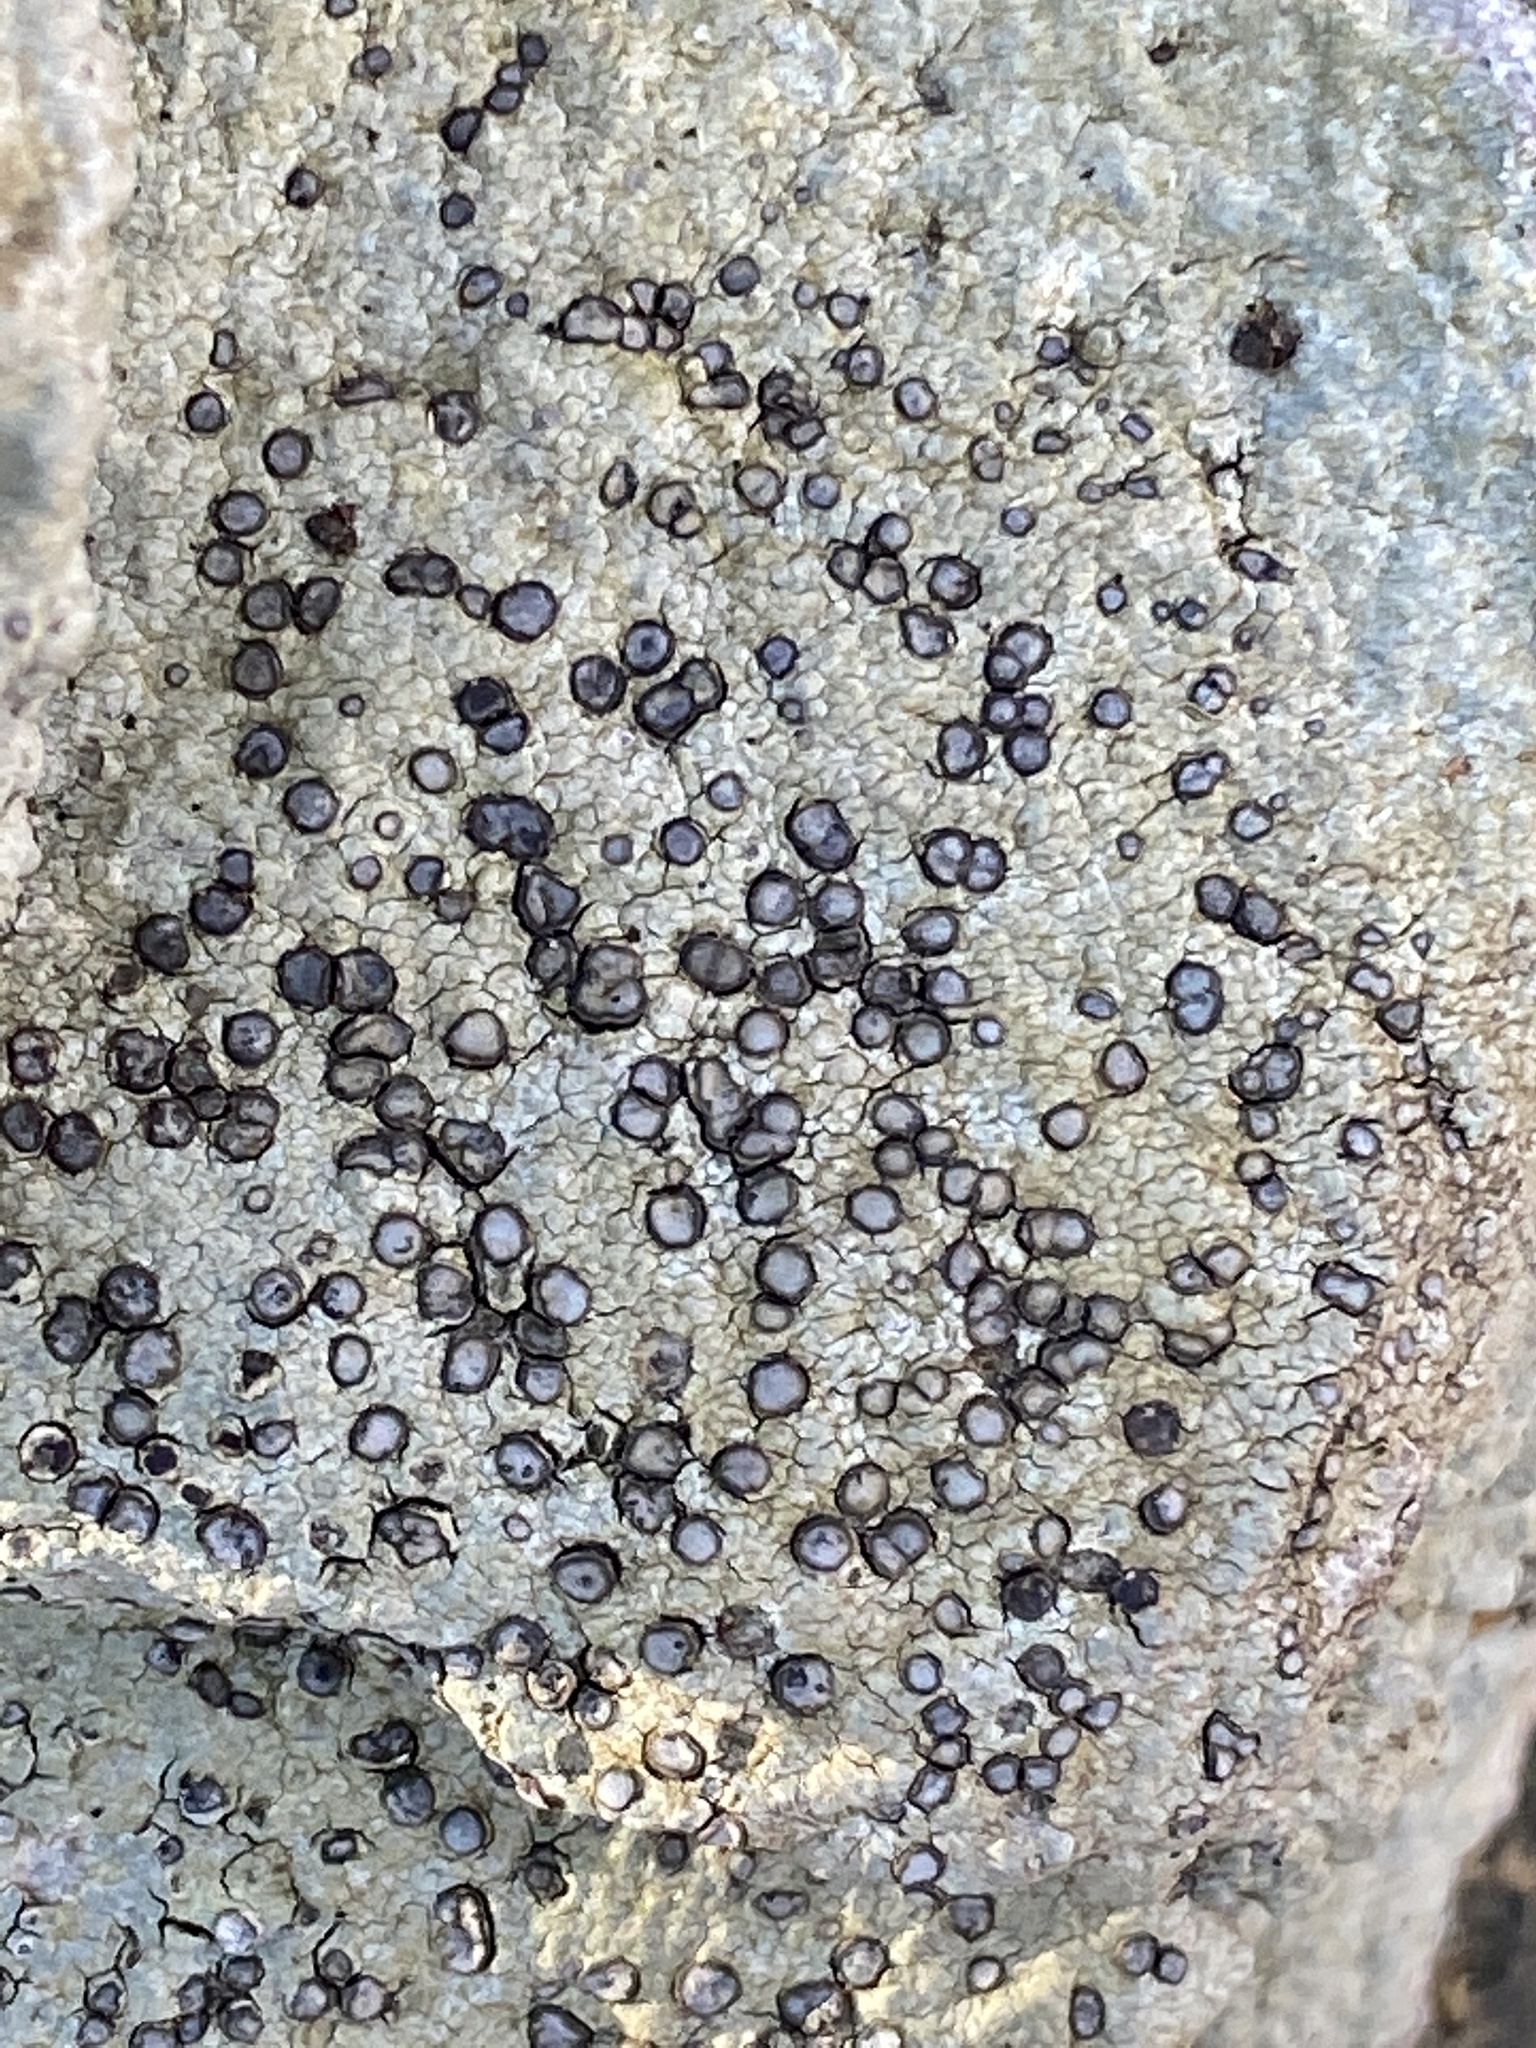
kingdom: Fungi
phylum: Ascomycota
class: Lecanoromycetes
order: Lecideales
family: Lecideaceae
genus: Porpidia
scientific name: Porpidia albocaerulescens
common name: Smokey-eyed boulder lichen
